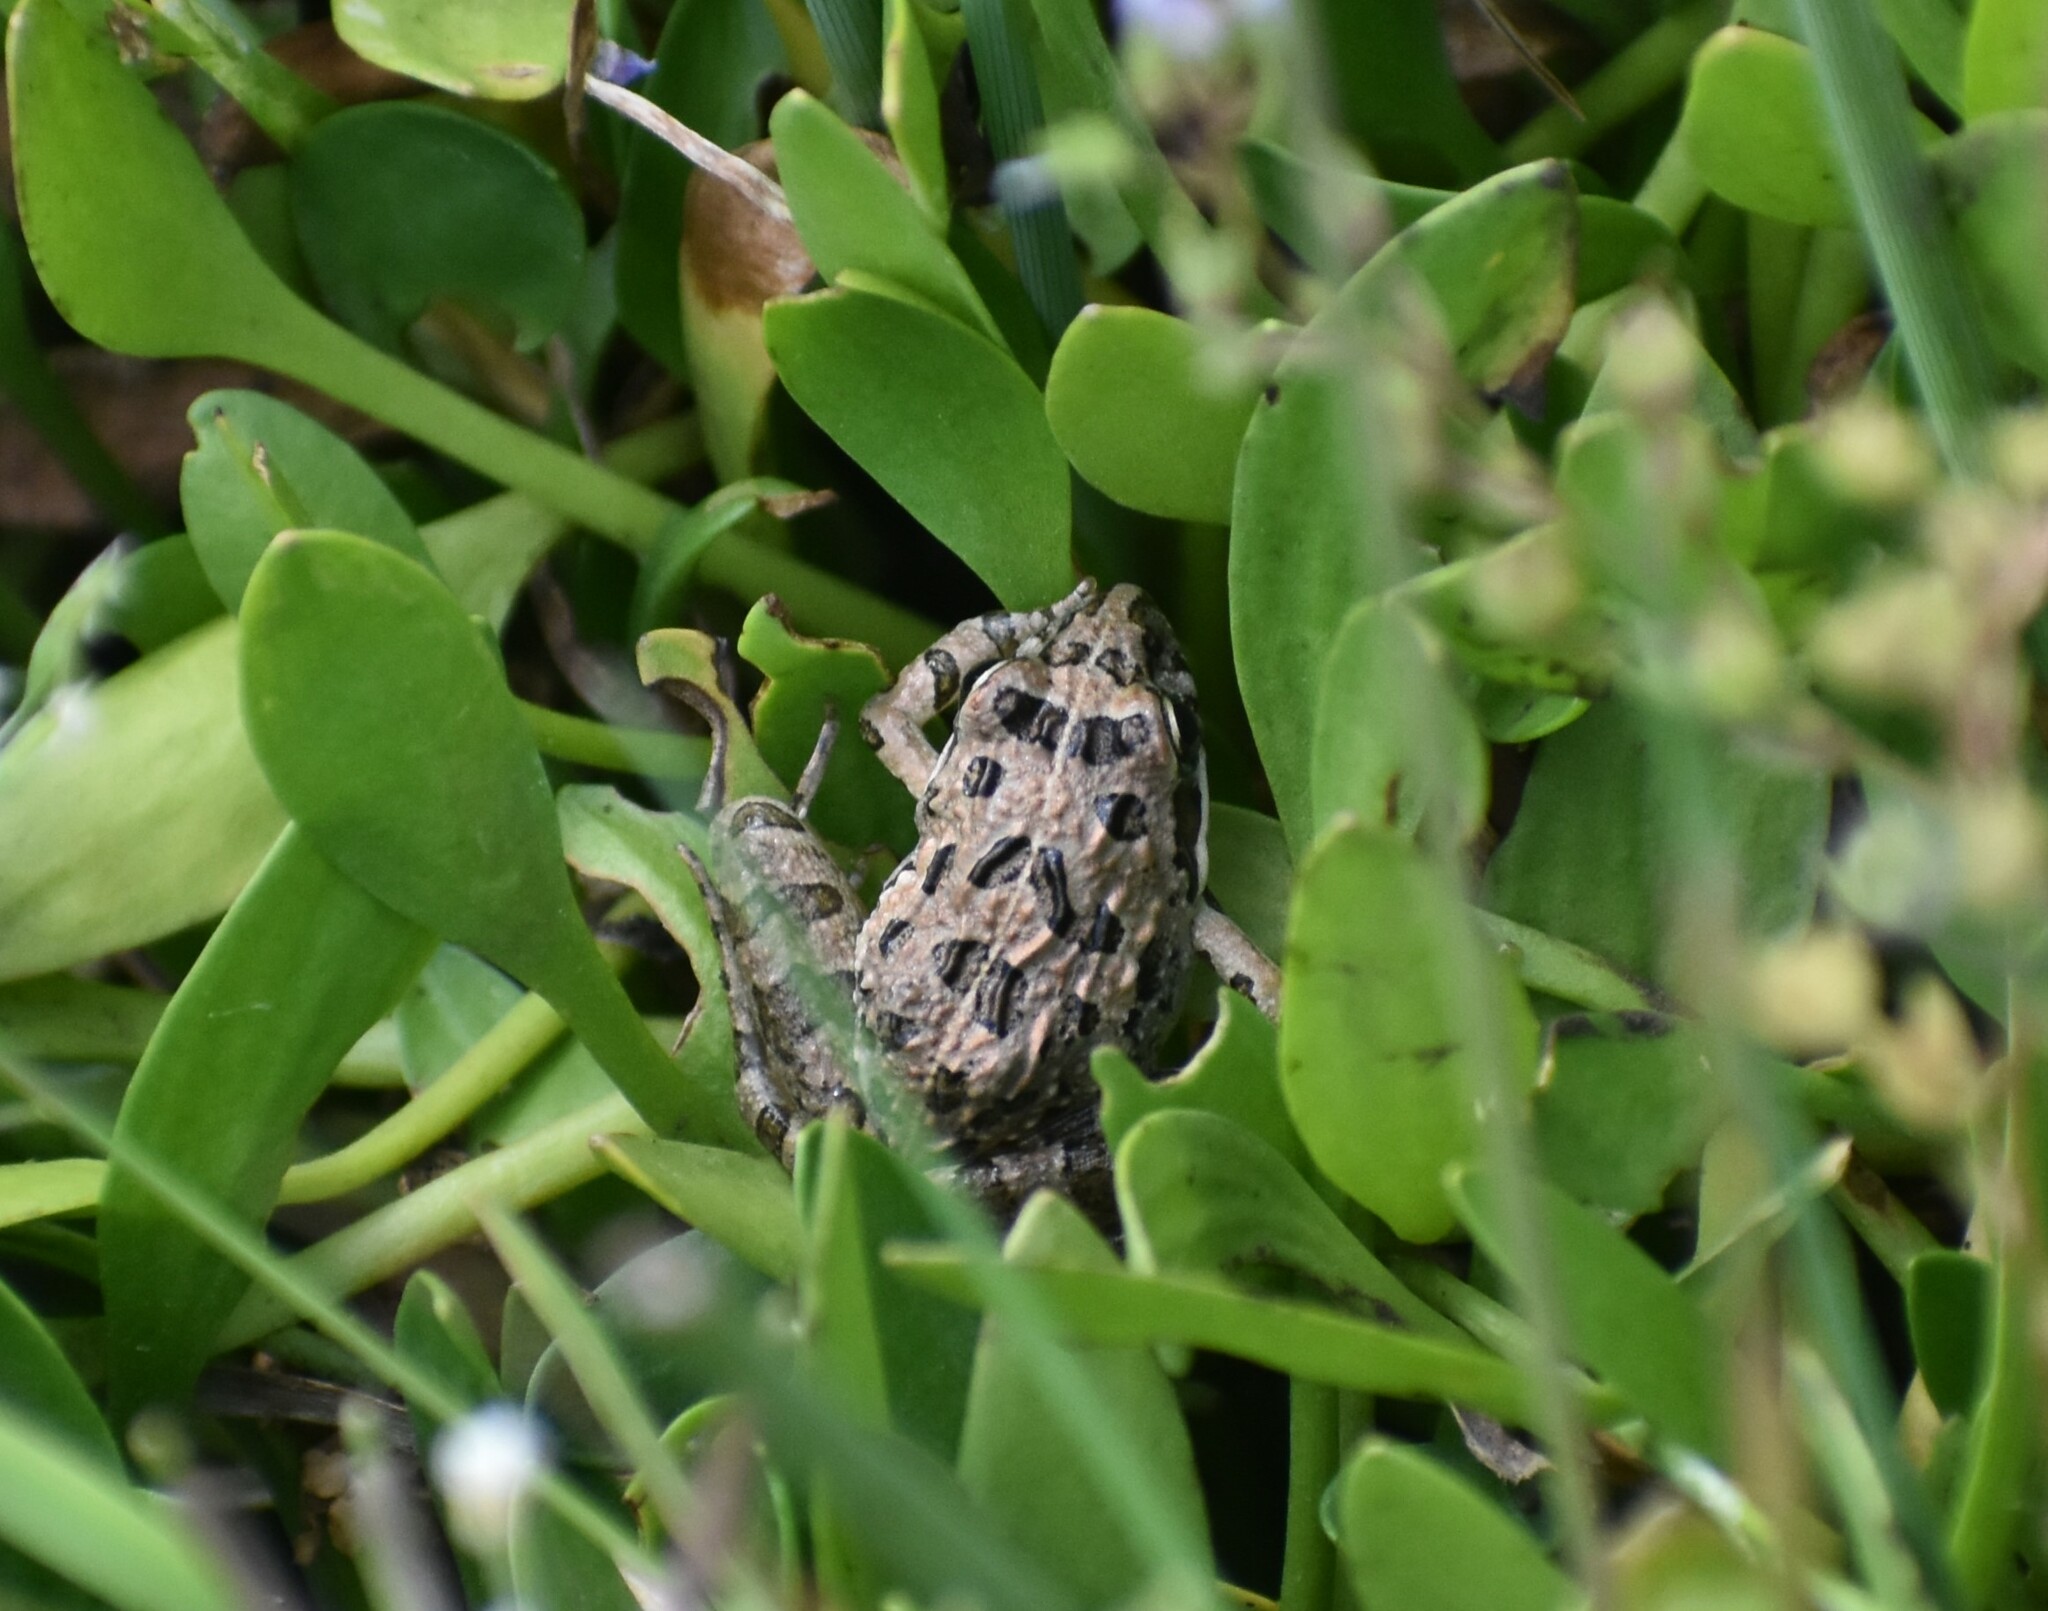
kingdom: Animalia
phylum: Chordata
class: Amphibia
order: Anura
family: Pyxicephalidae
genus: Strongylopus
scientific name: Strongylopus grayii
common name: Gray's stream frog
